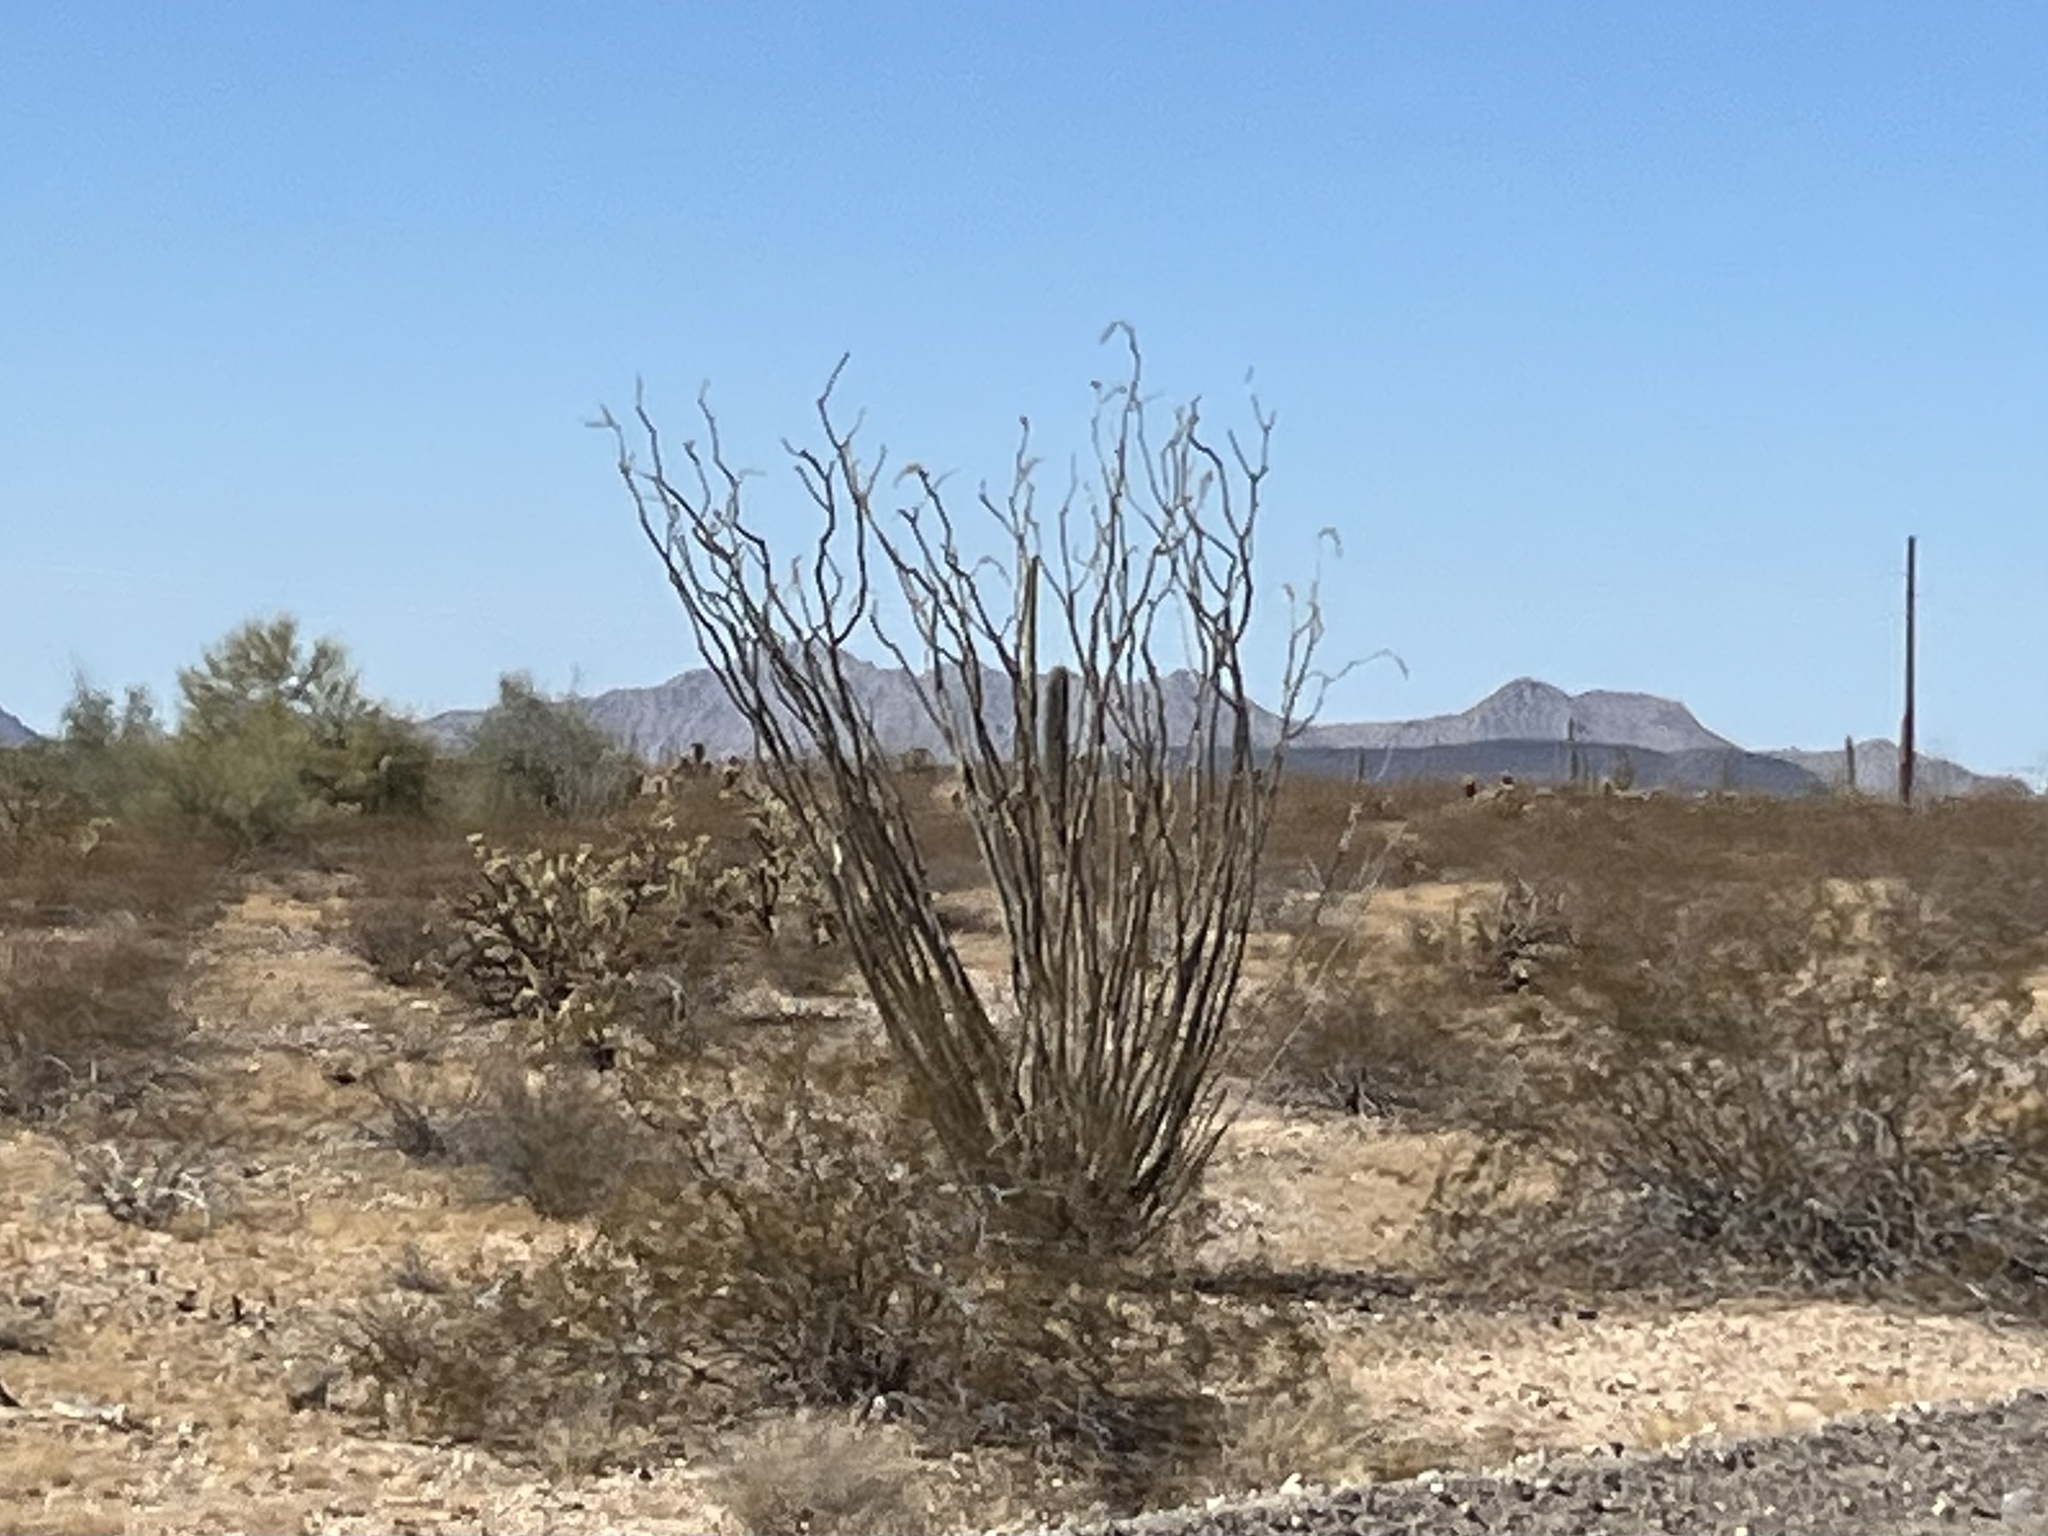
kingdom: Plantae
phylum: Tracheophyta
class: Magnoliopsida
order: Ericales
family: Fouquieriaceae
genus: Fouquieria
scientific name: Fouquieria splendens
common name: Vine-cactus
